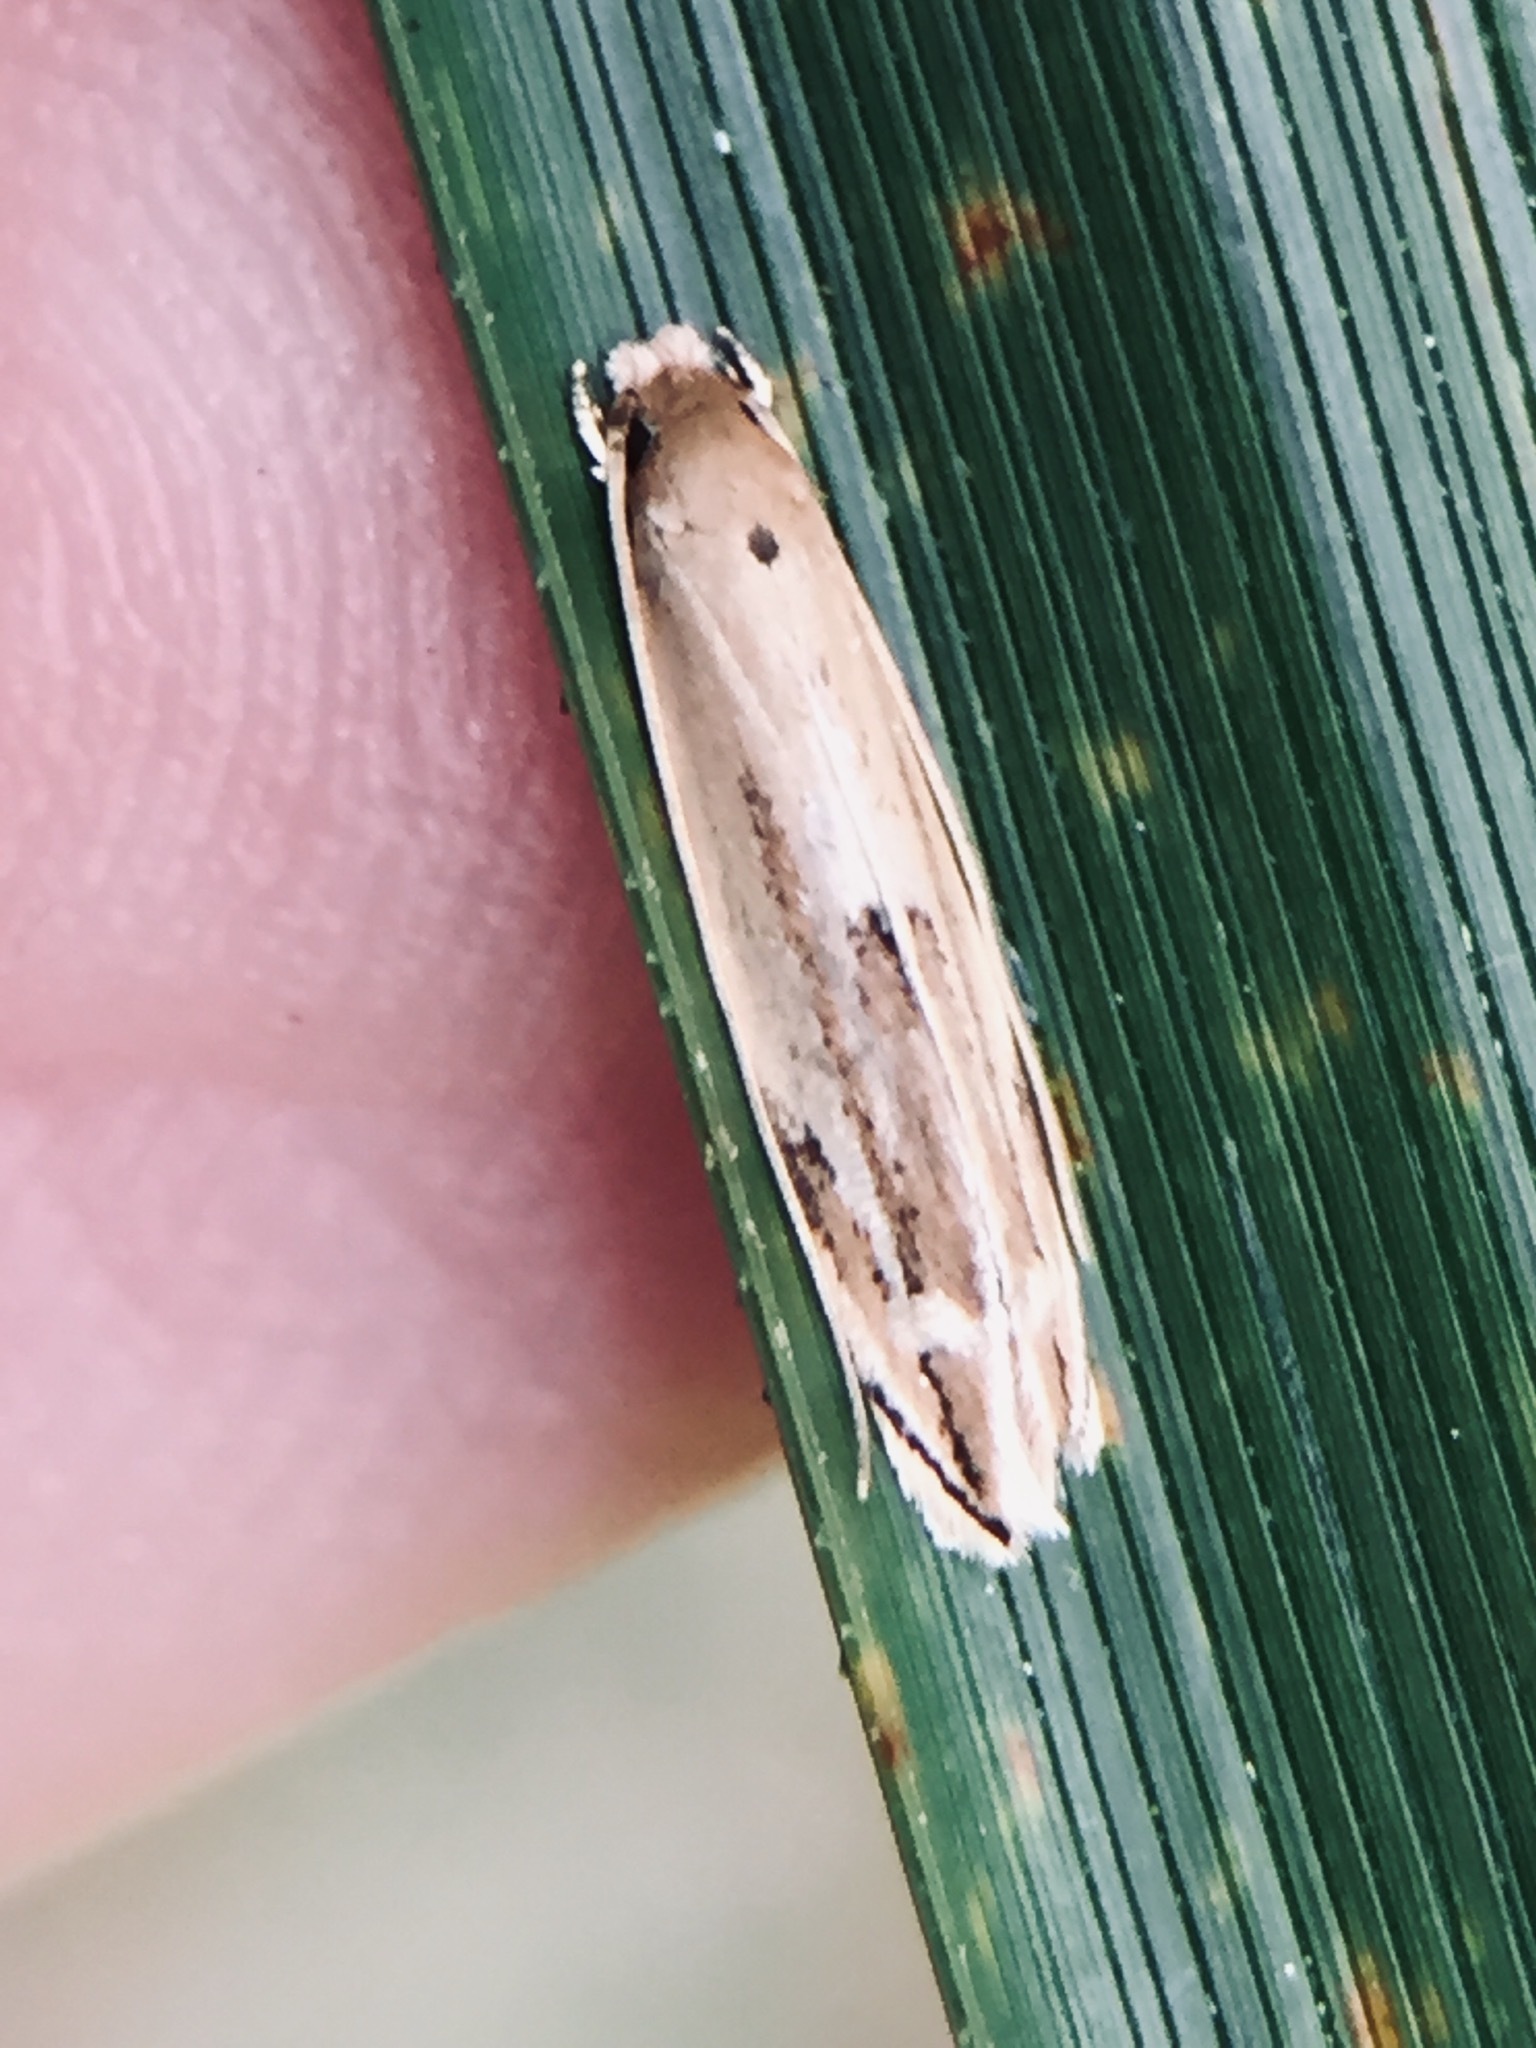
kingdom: Animalia
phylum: Arthropoda
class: Insecta
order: Lepidoptera
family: Tineidae
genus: Amphixystis
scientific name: Amphixystis hapsimacha
